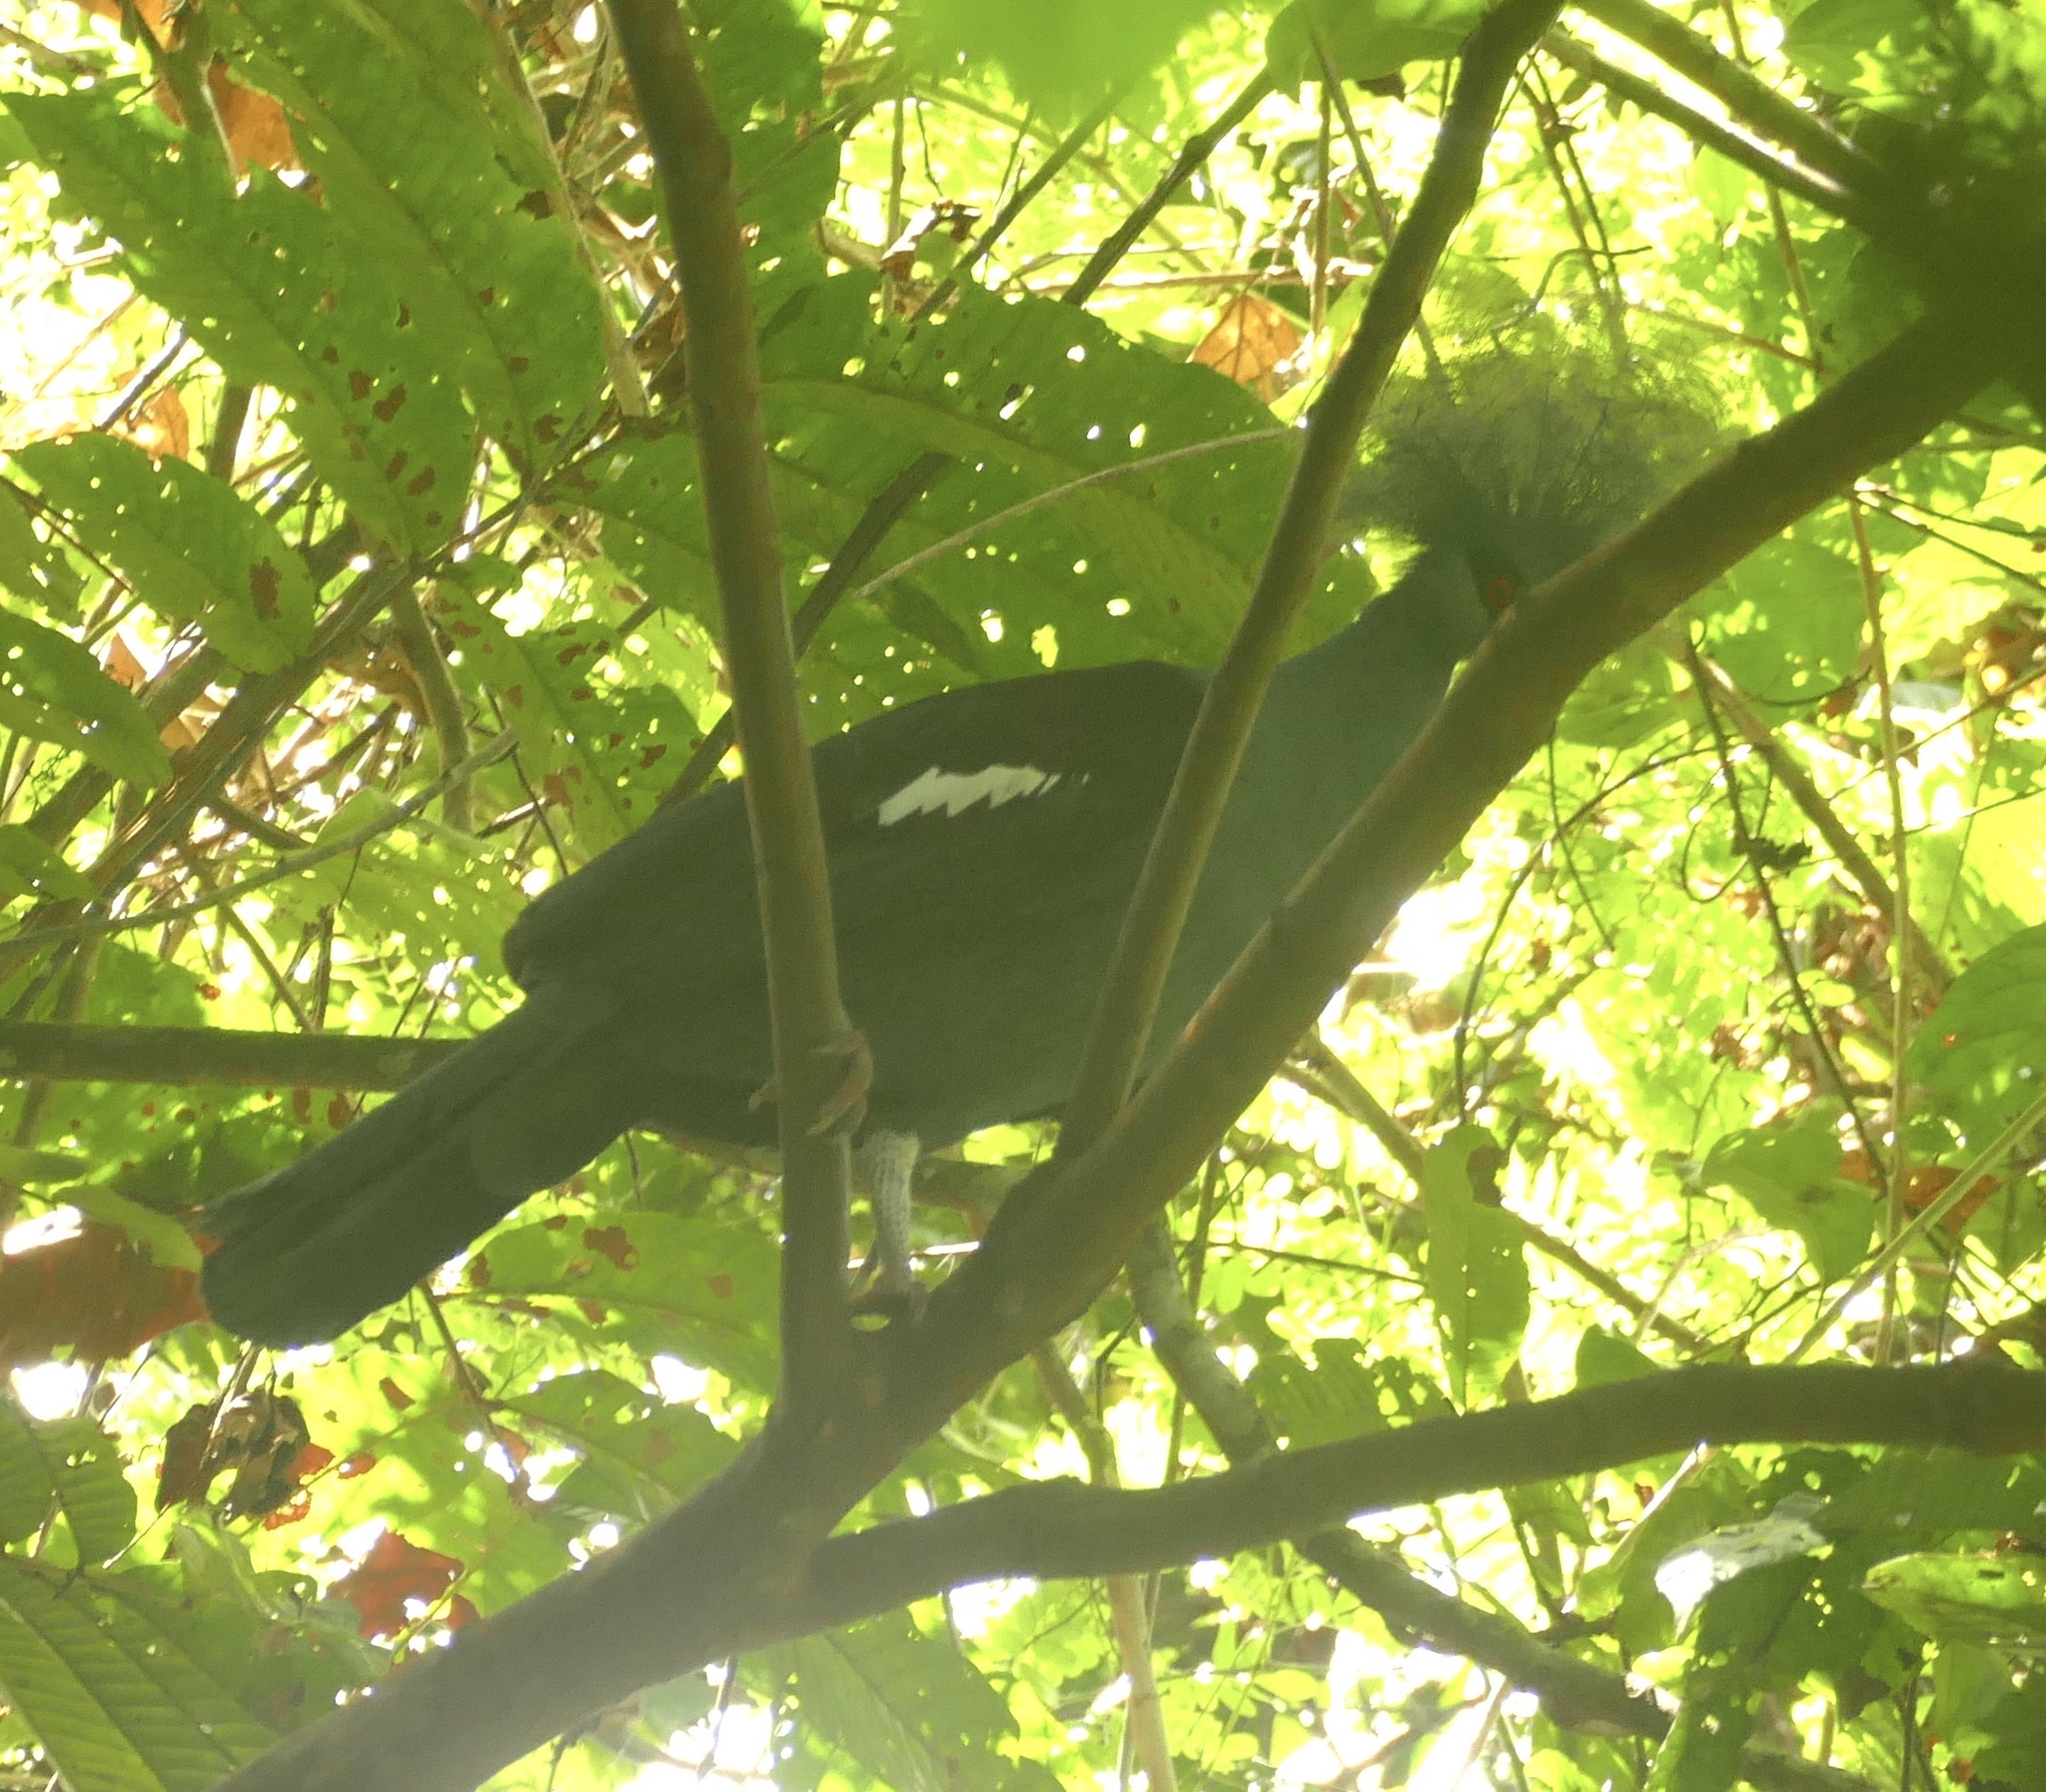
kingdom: Animalia
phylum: Chordata
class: Aves
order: Columbiformes
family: Columbidae
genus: Goura
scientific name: Goura cristata
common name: Western crowned-pigeon
